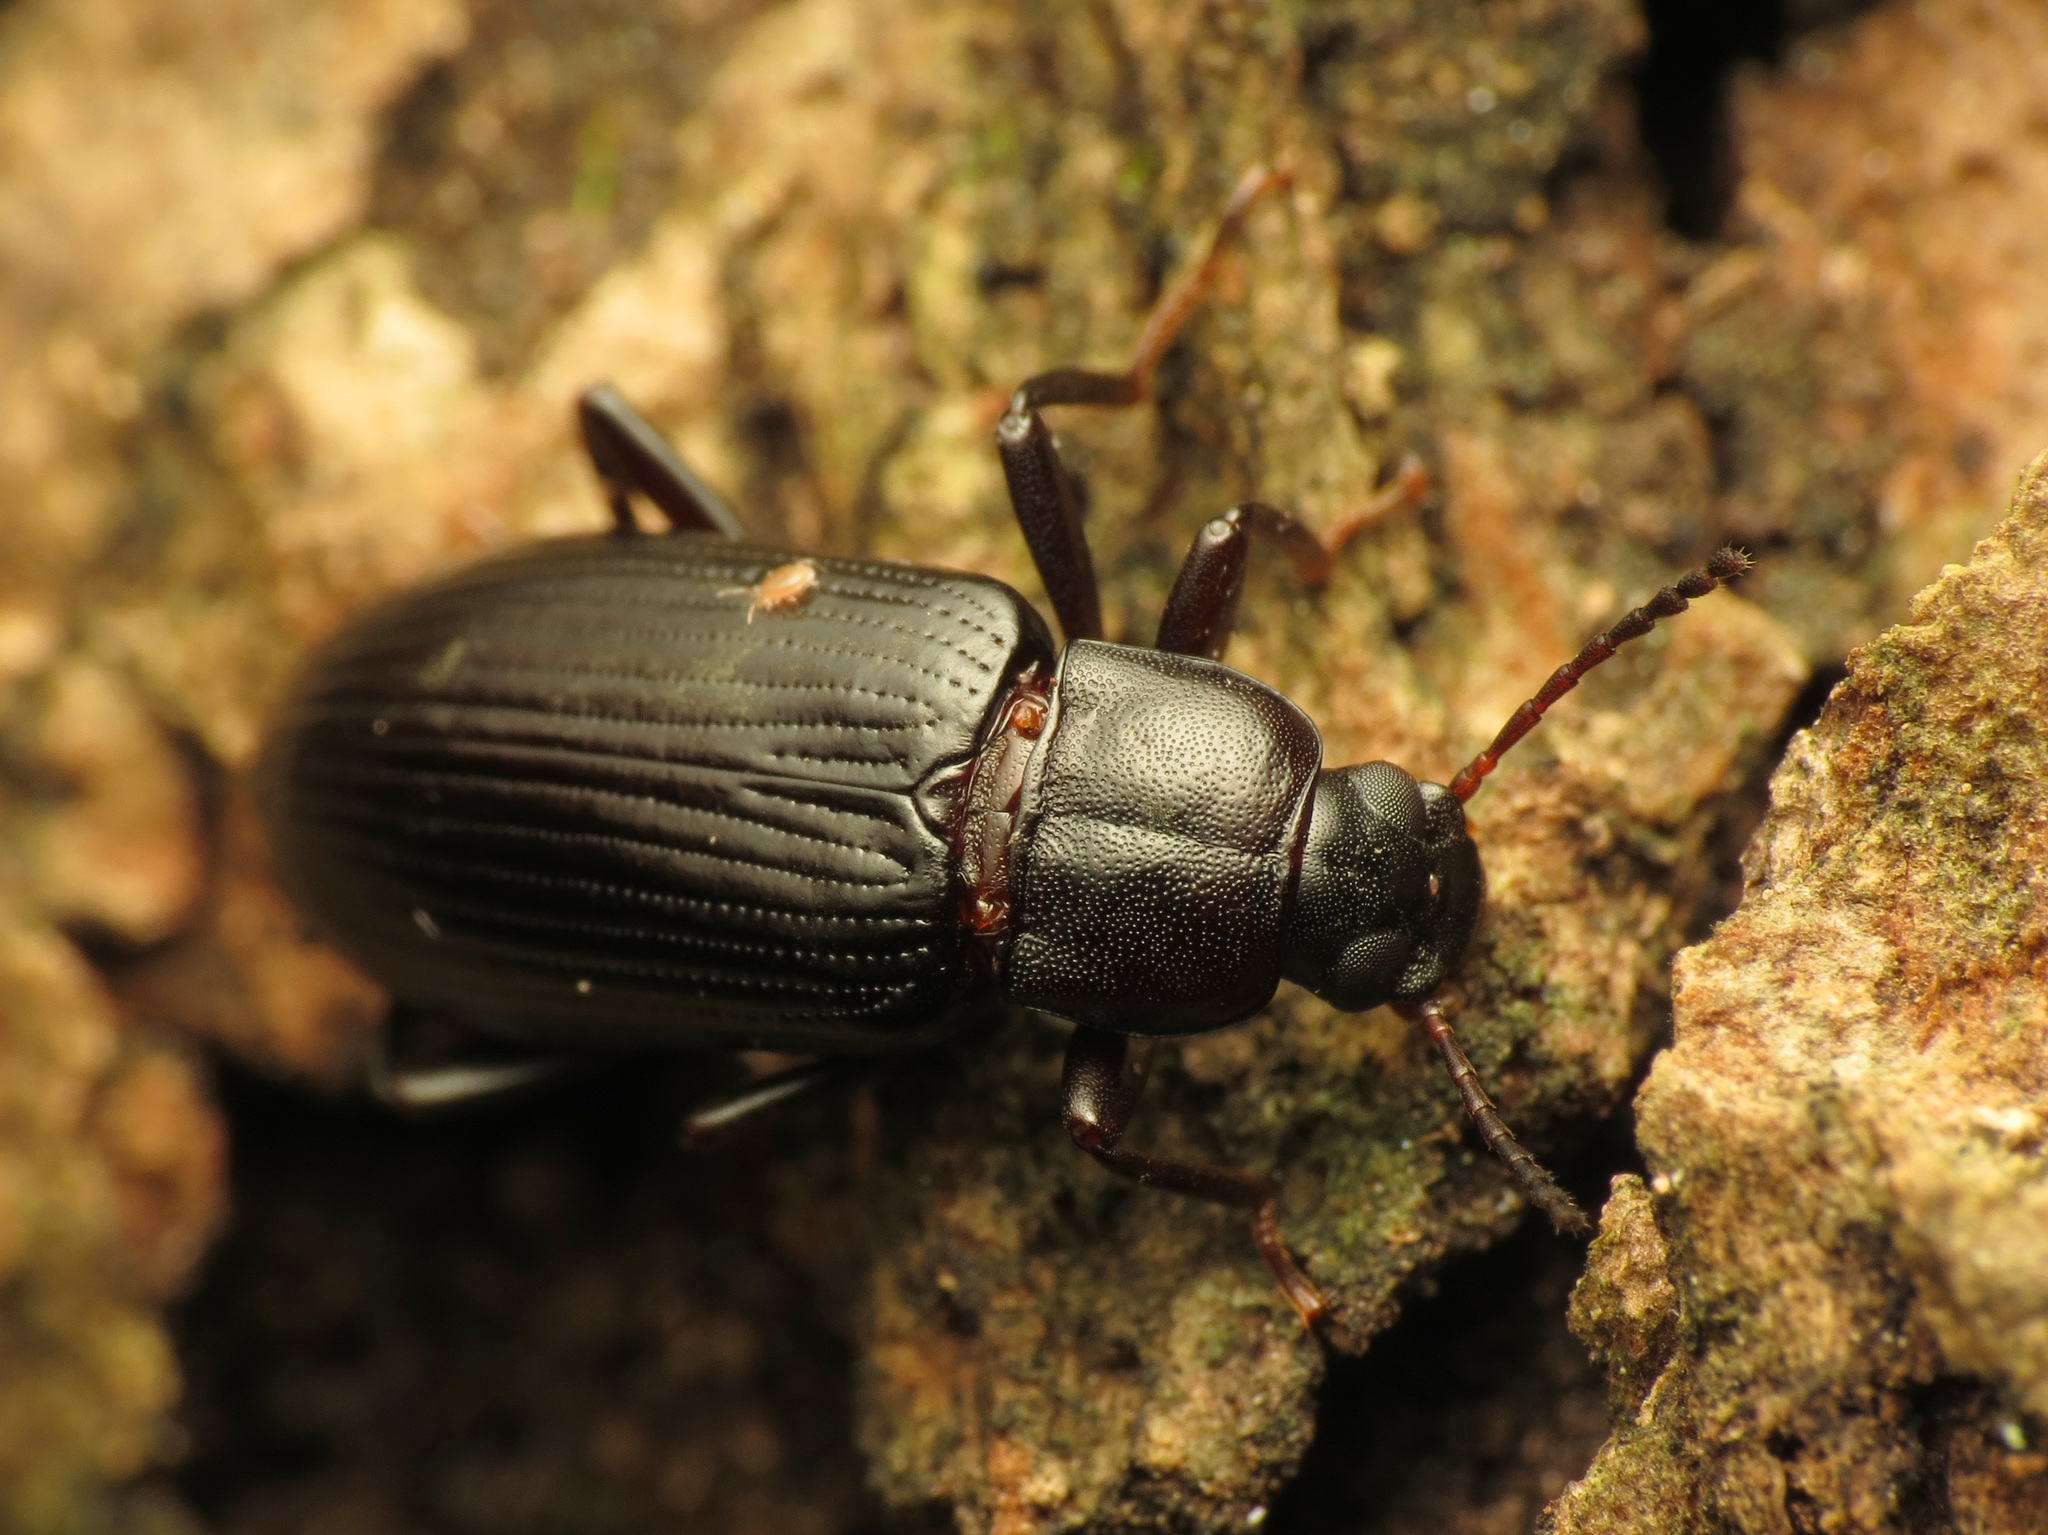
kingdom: Animalia
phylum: Arthropoda
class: Insecta
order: Coleoptera
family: Tenebrionidae
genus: Strongylium
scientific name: Strongylium terminatum
